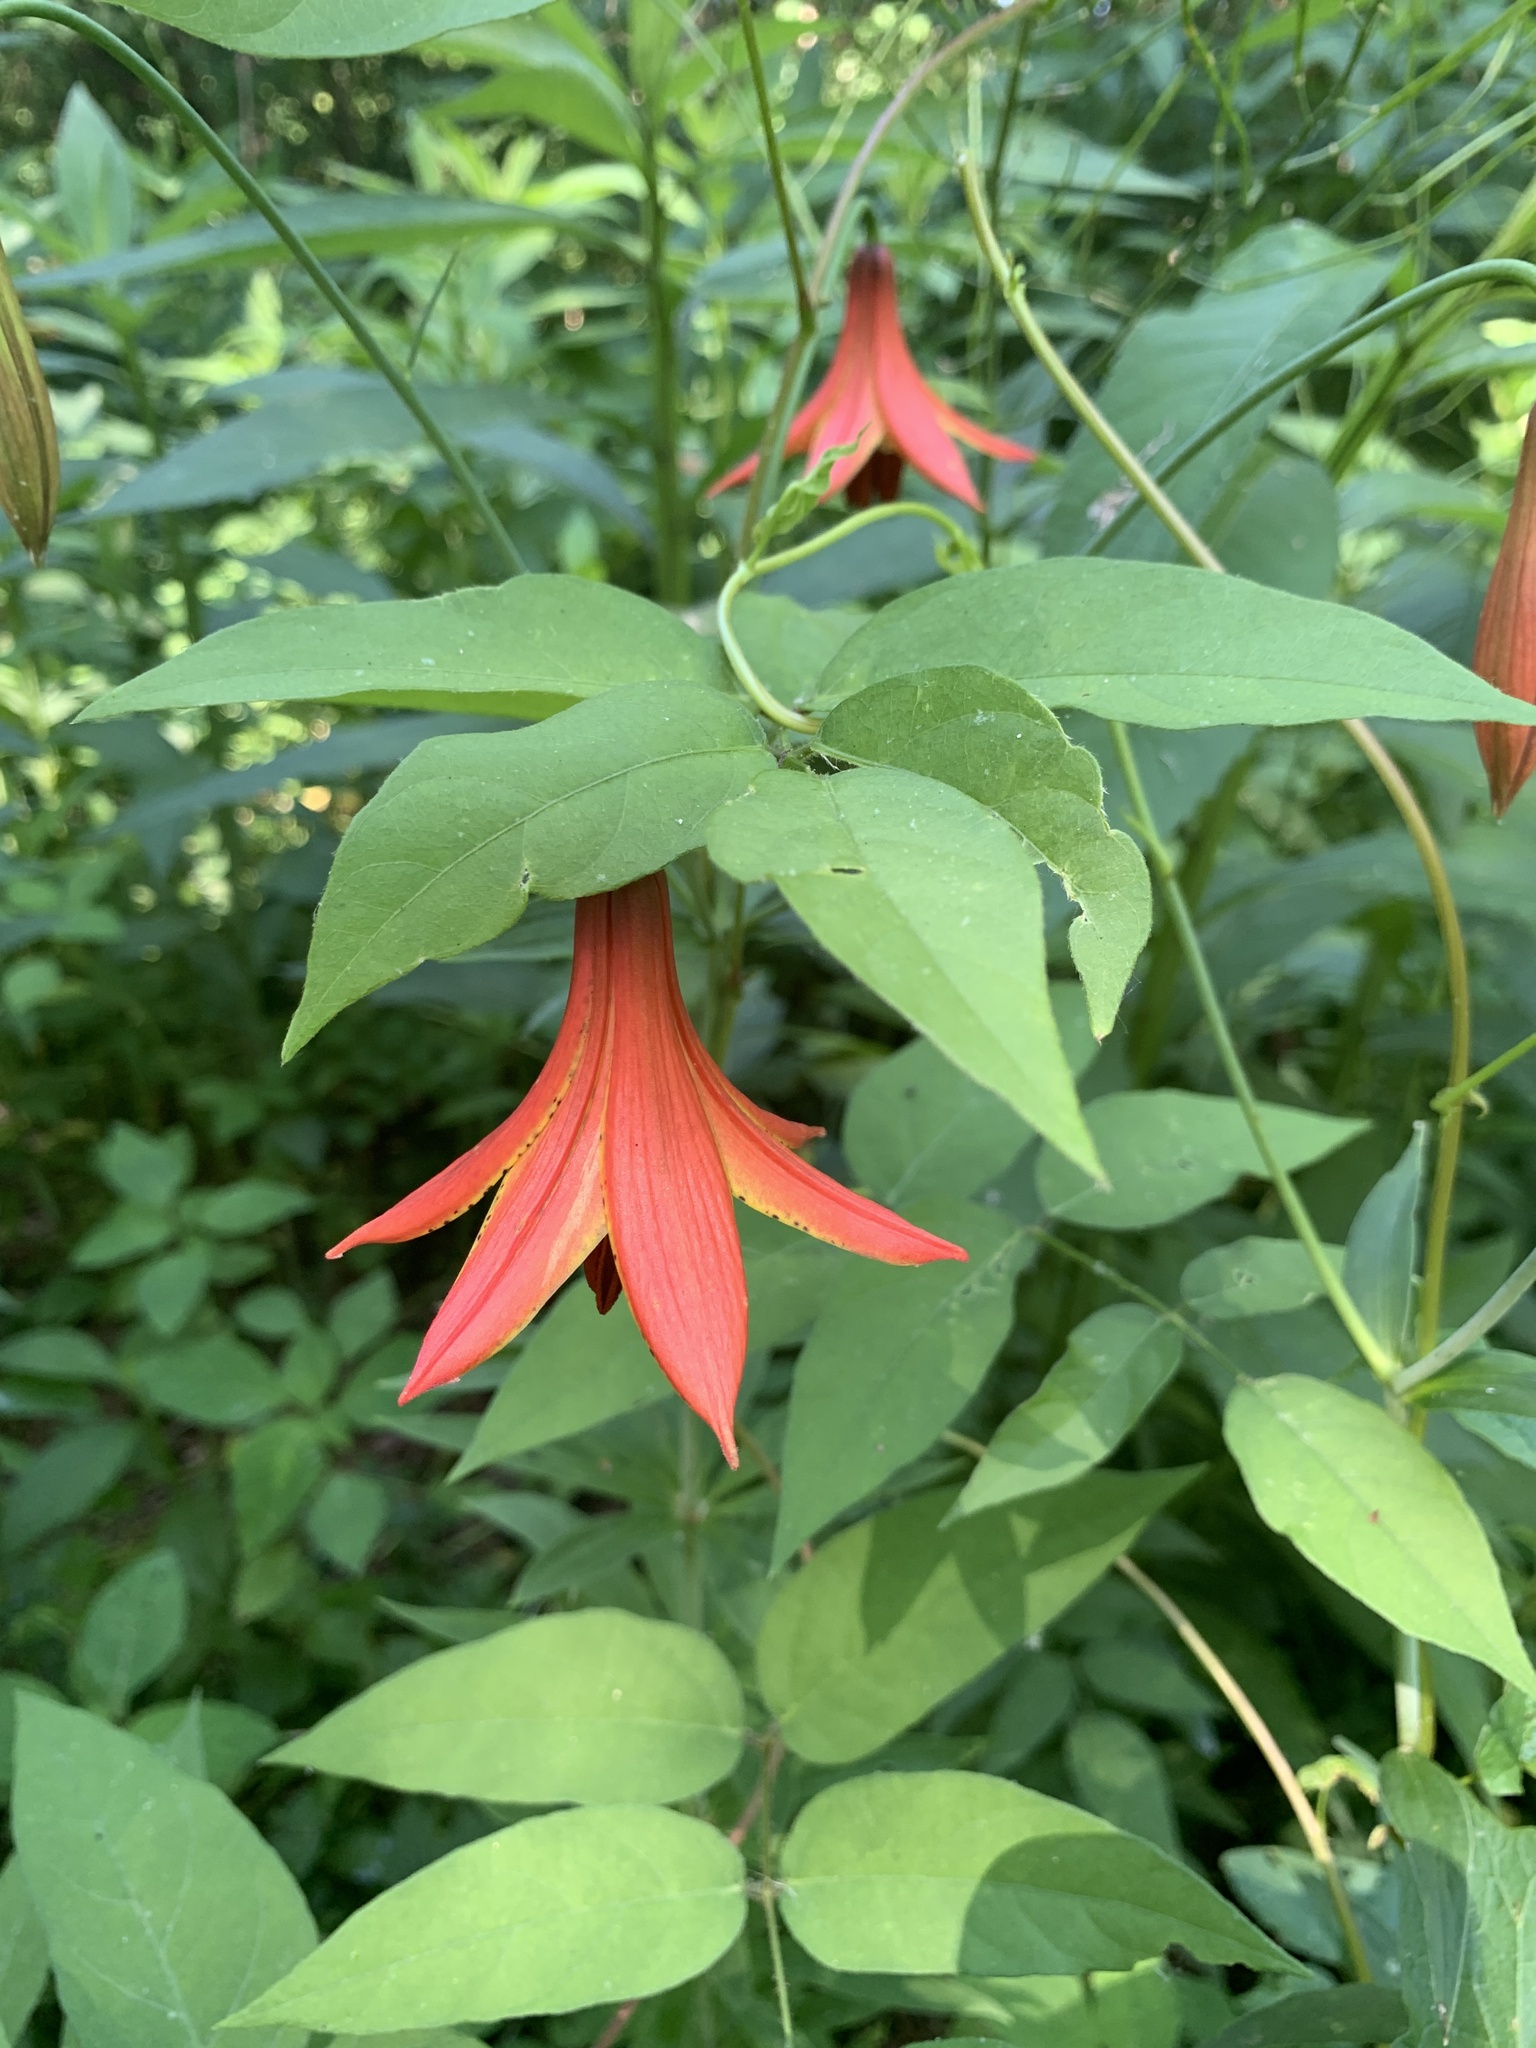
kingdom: Plantae
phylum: Tracheophyta
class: Liliopsida
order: Liliales
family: Liliaceae
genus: Lilium
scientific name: Lilium canadense
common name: Canada lily
